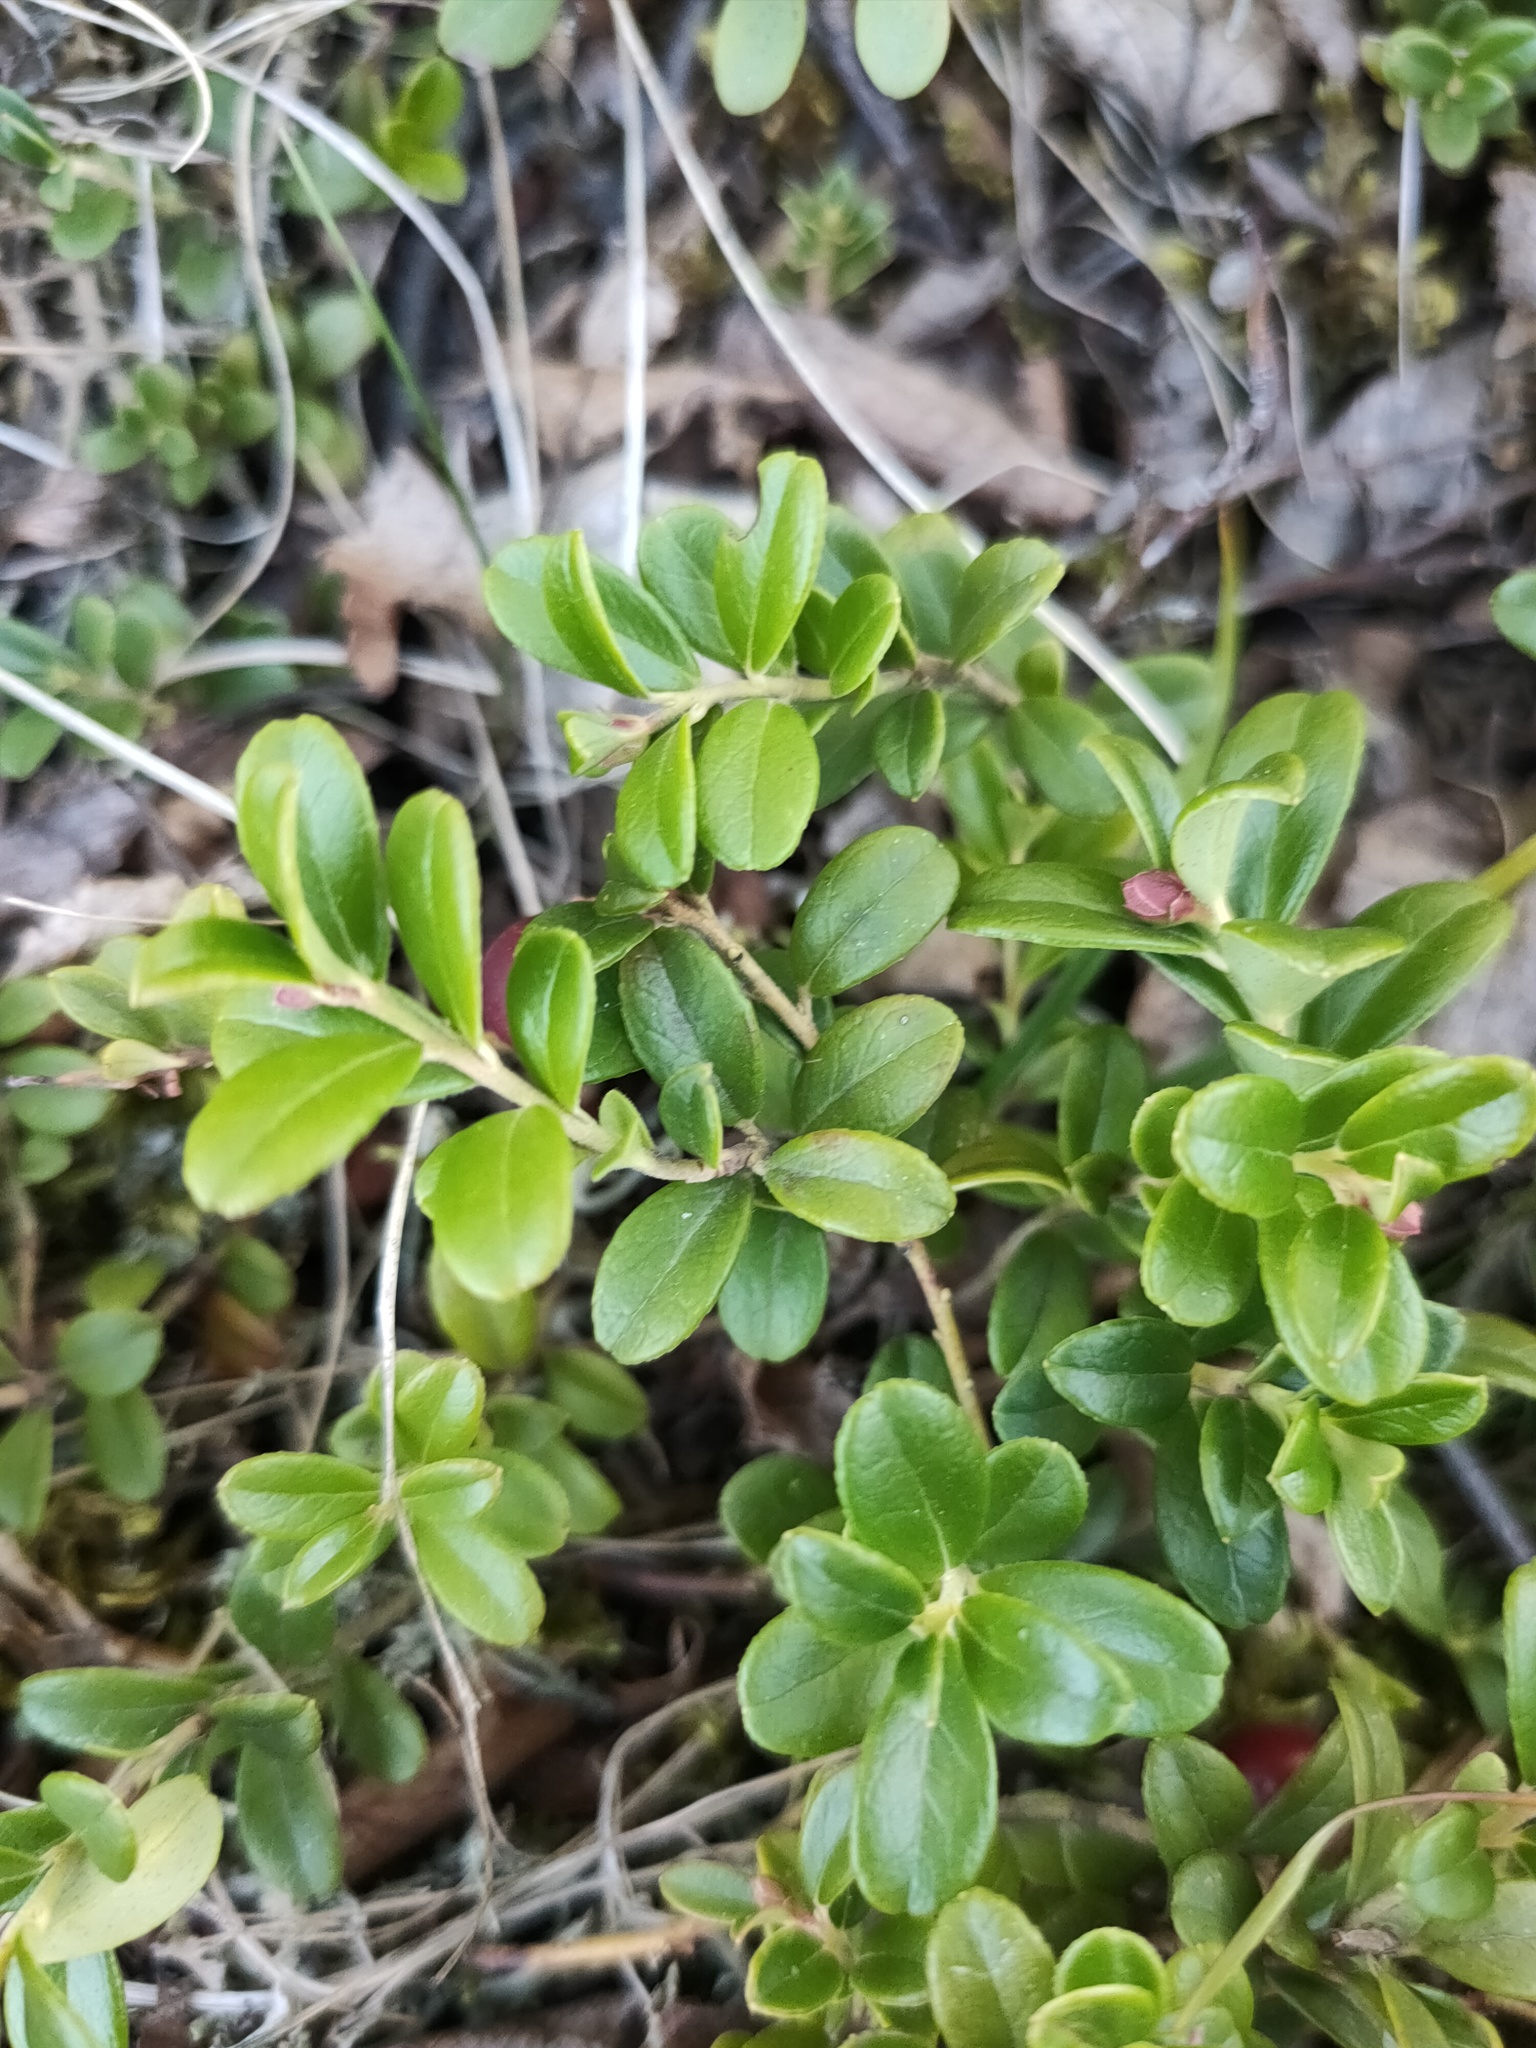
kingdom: Plantae
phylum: Tracheophyta
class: Magnoliopsida
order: Ericales
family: Ericaceae
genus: Vaccinium
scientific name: Vaccinium vitis-idaea
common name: Cowberry
